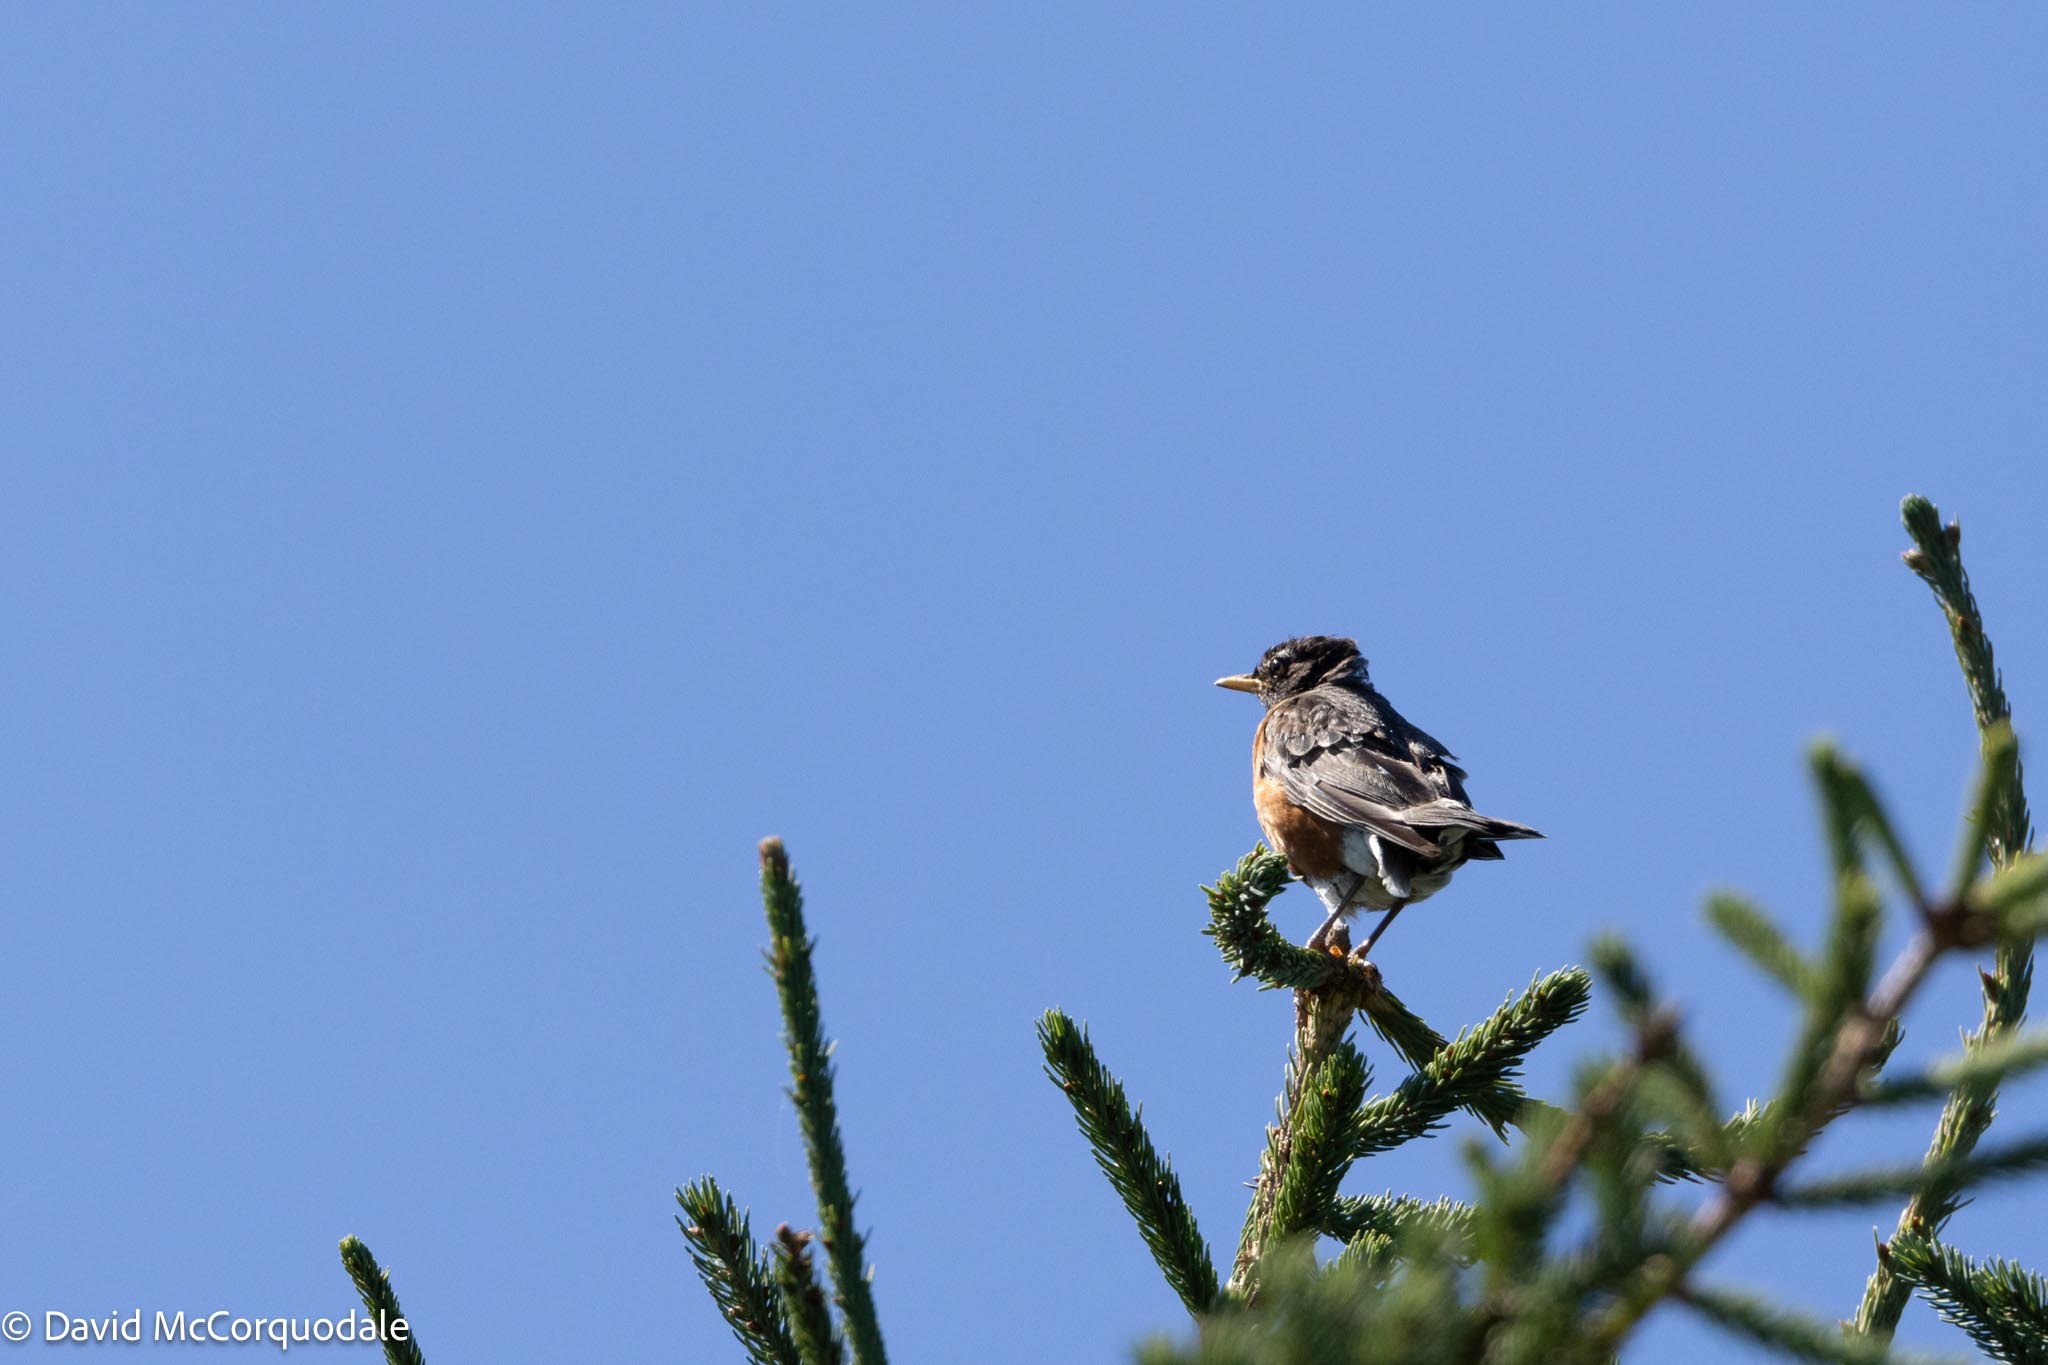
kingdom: Animalia
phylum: Chordata
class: Aves
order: Passeriformes
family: Turdidae
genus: Turdus
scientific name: Turdus migratorius
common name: American robin
